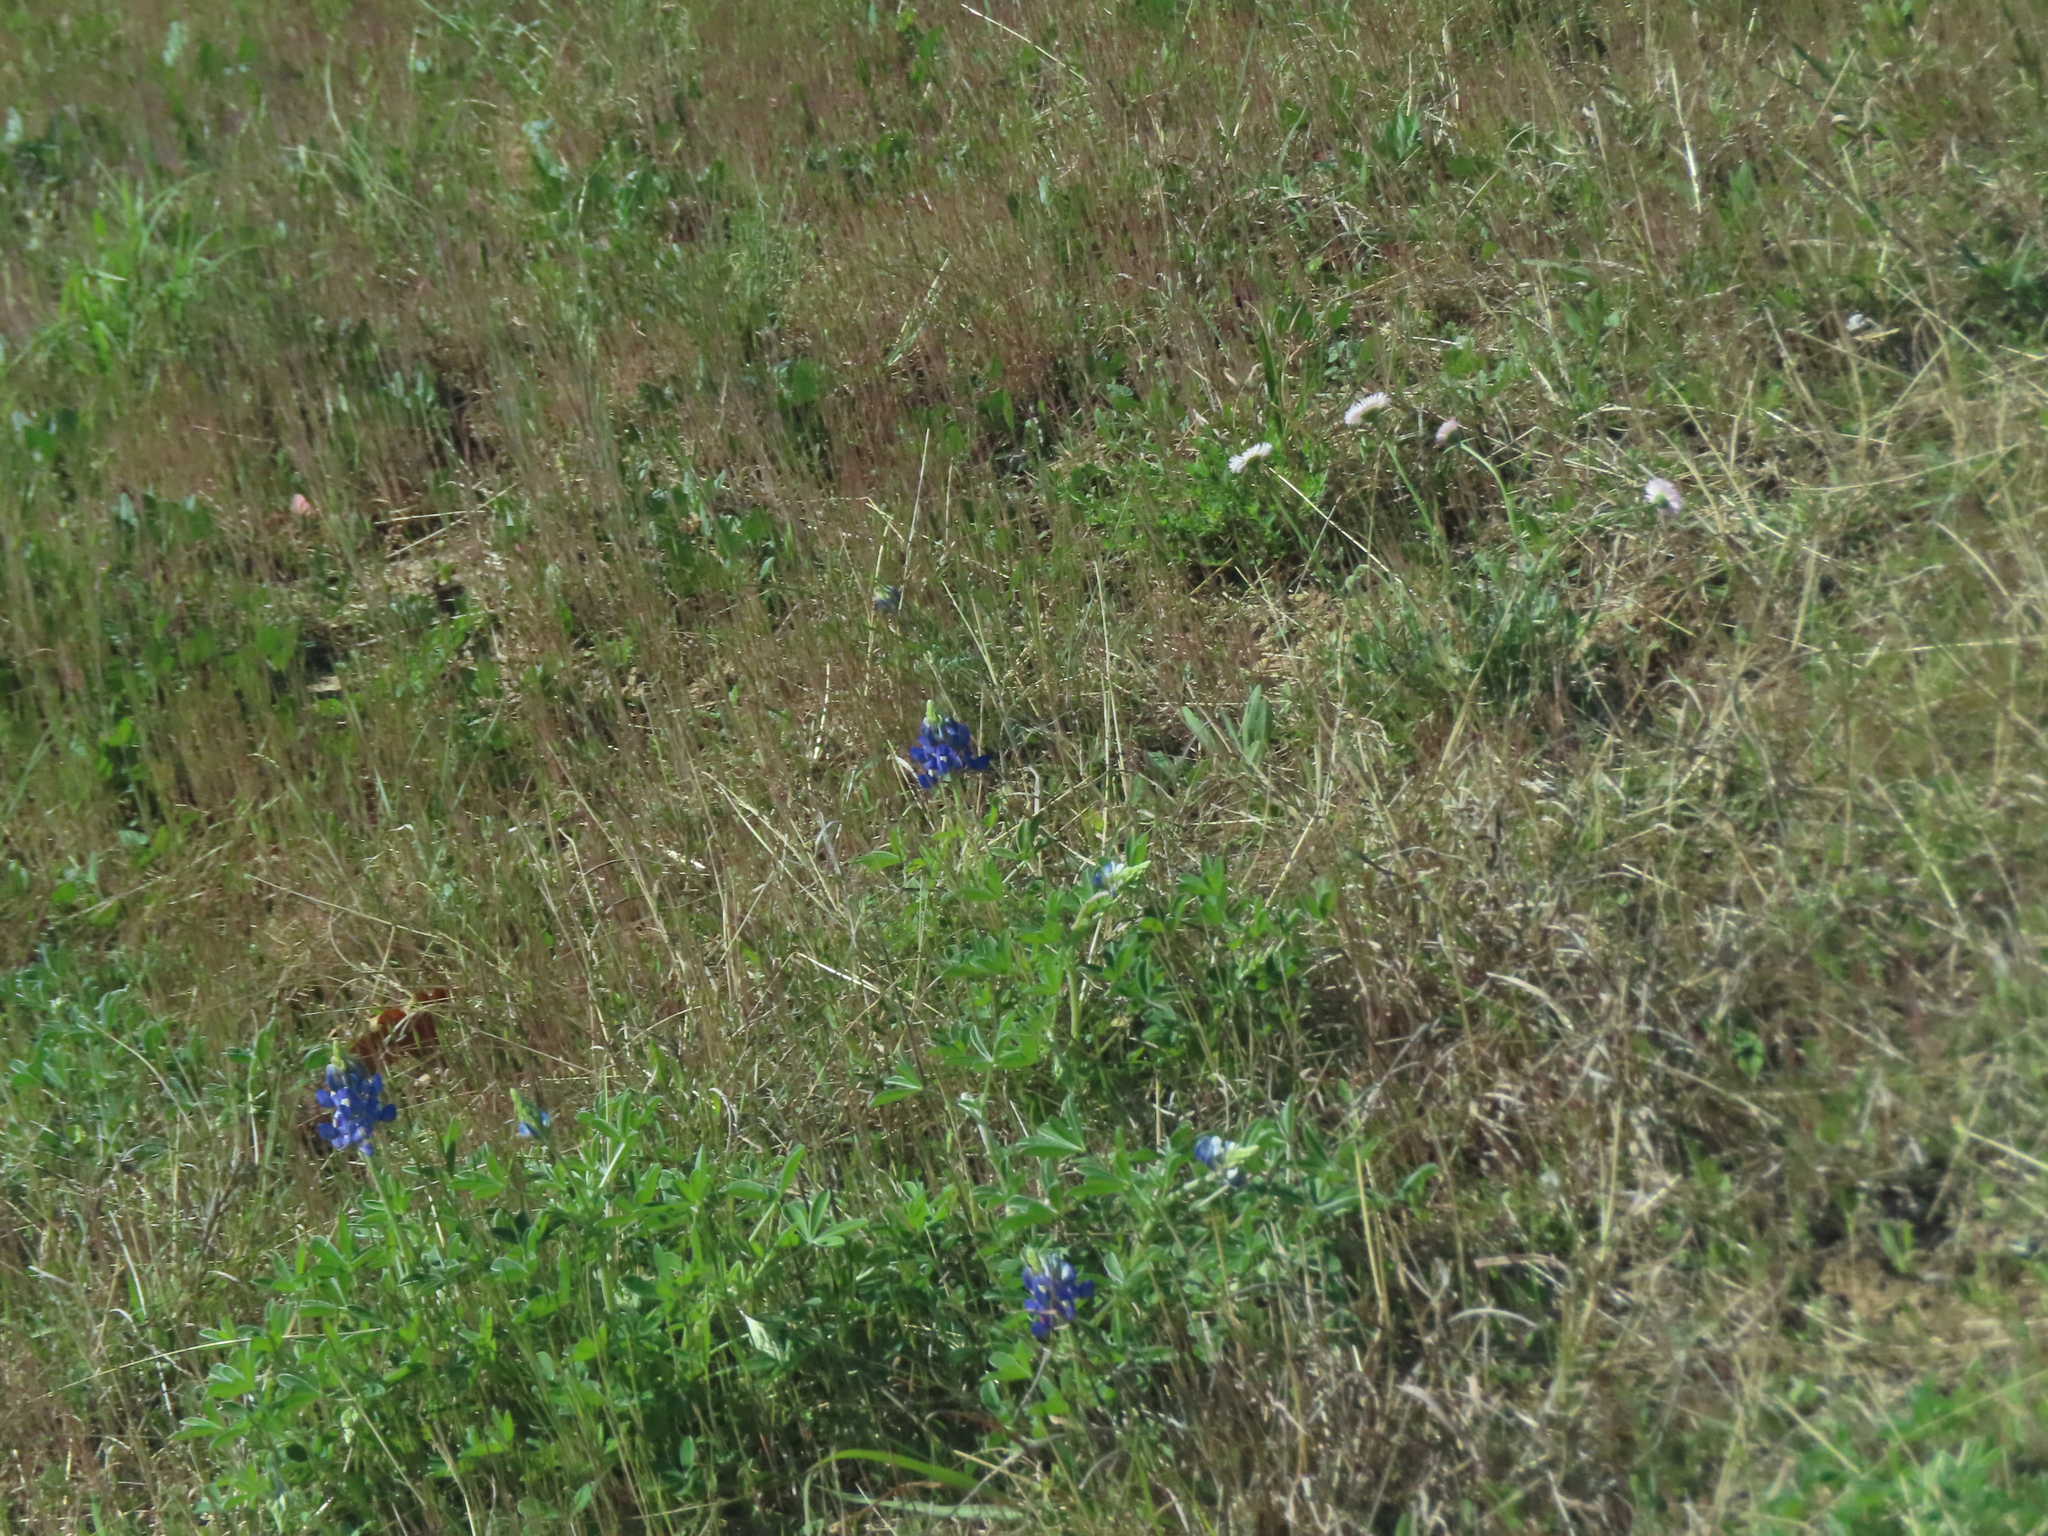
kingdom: Plantae
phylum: Tracheophyta
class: Magnoliopsida
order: Fabales
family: Fabaceae
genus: Lupinus
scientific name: Lupinus texensis
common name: Texas bluebonnet
